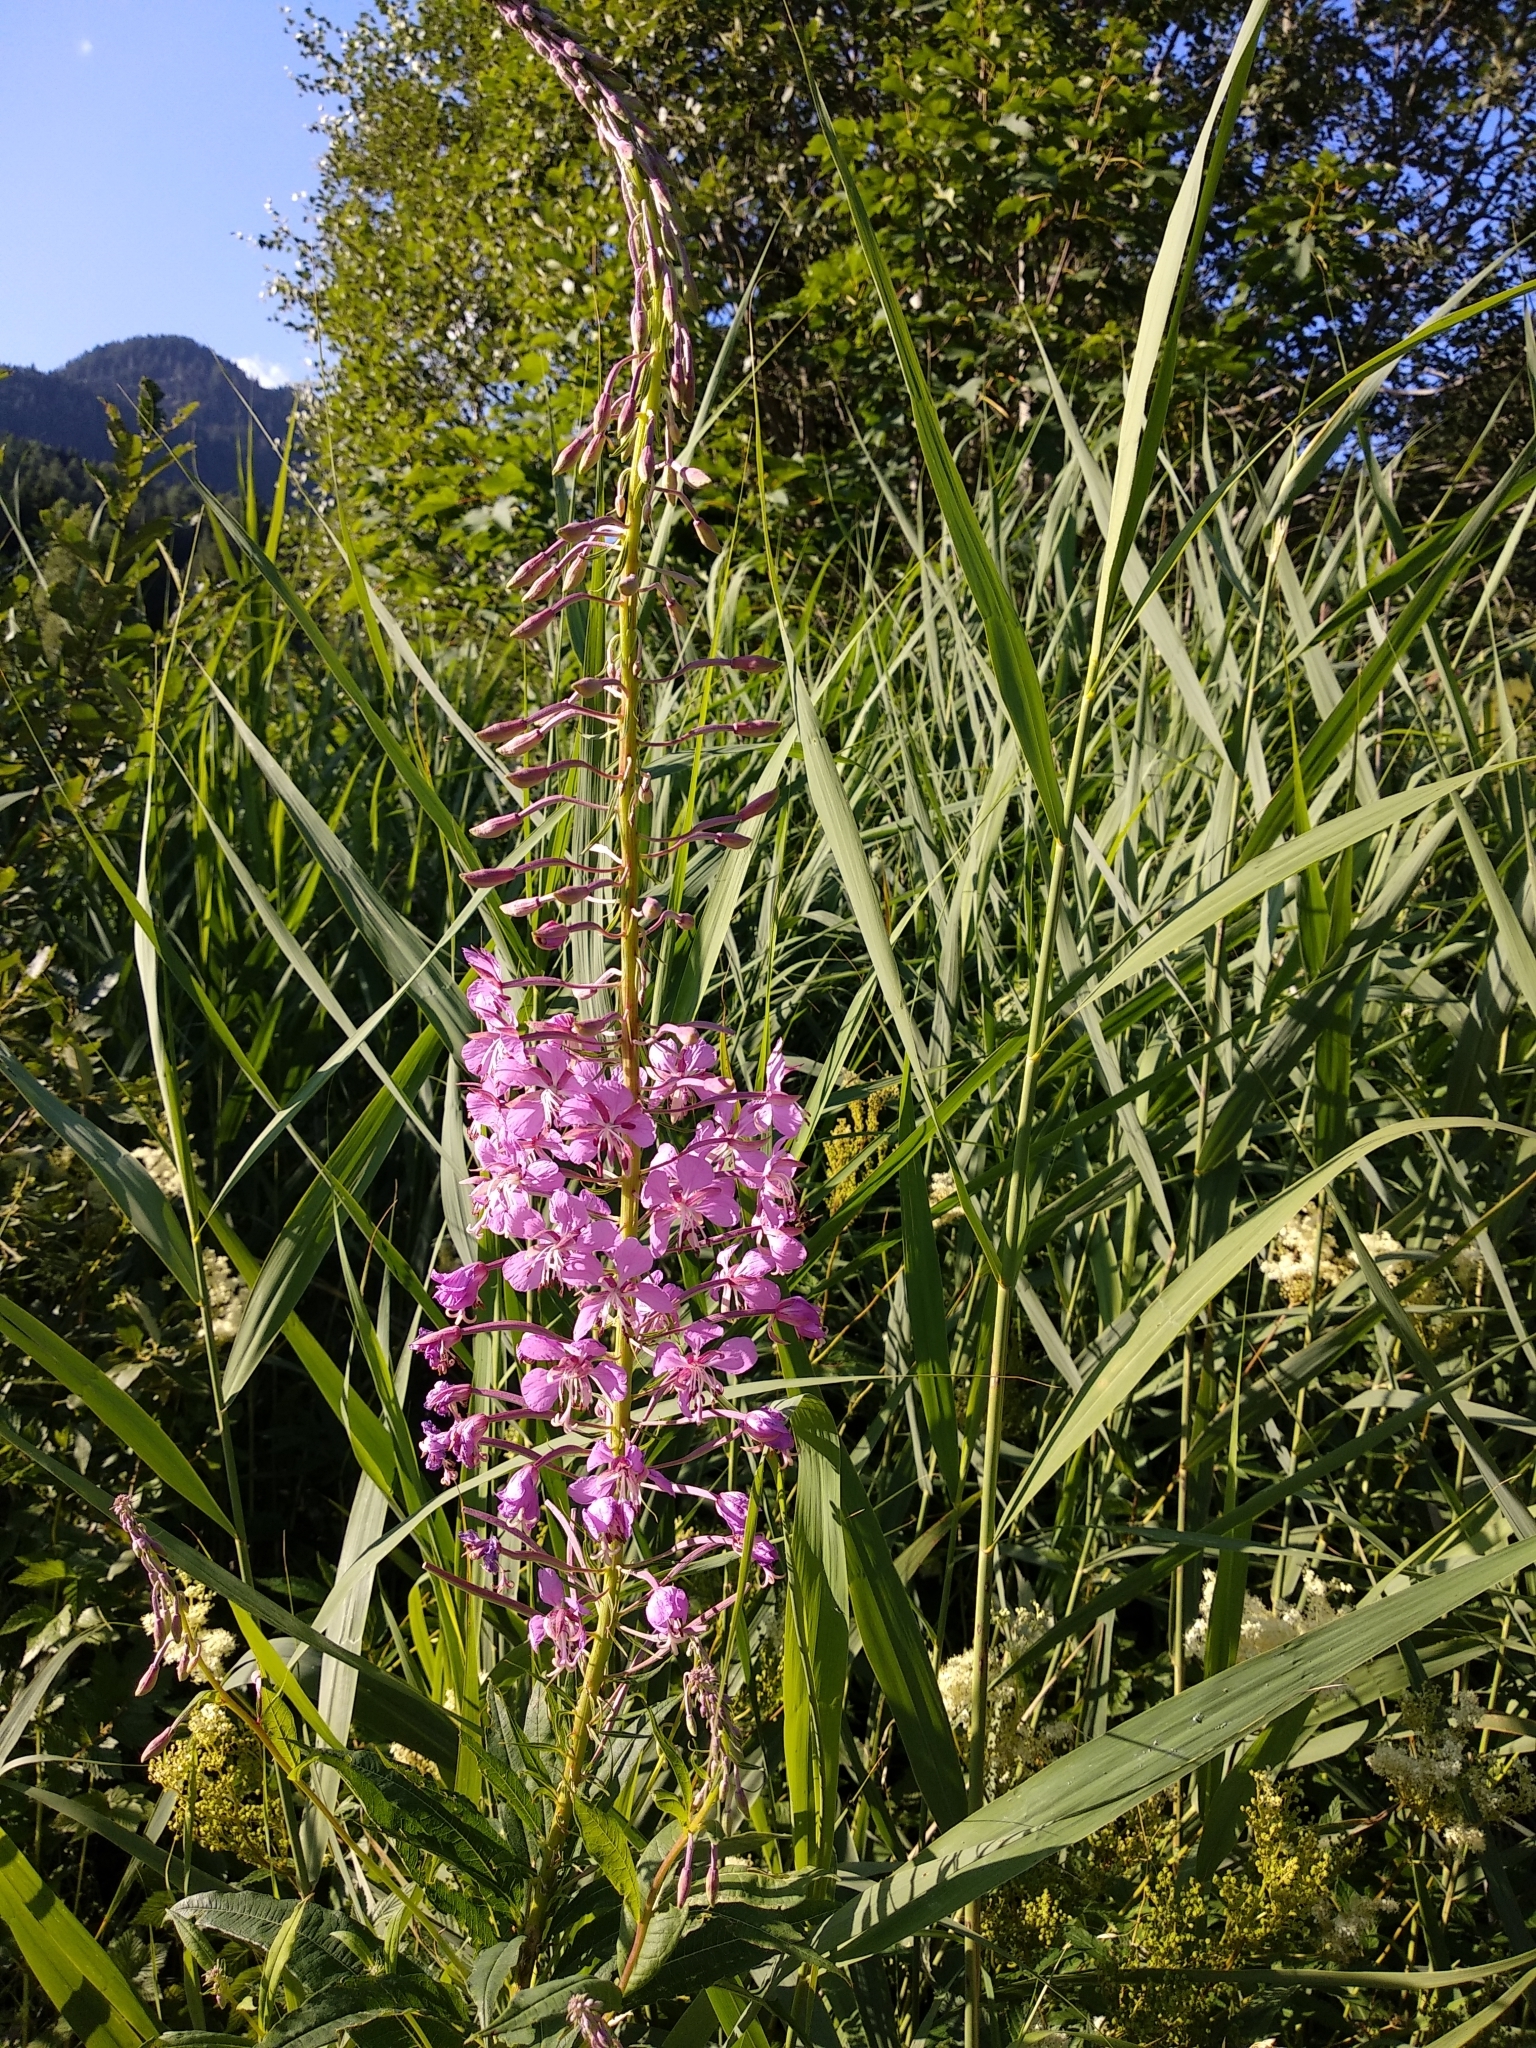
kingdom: Plantae
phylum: Tracheophyta
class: Magnoliopsida
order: Myrtales
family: Onagraceae
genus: Chamaenerion
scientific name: Chamaenerion angustifolium
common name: Fireweed
